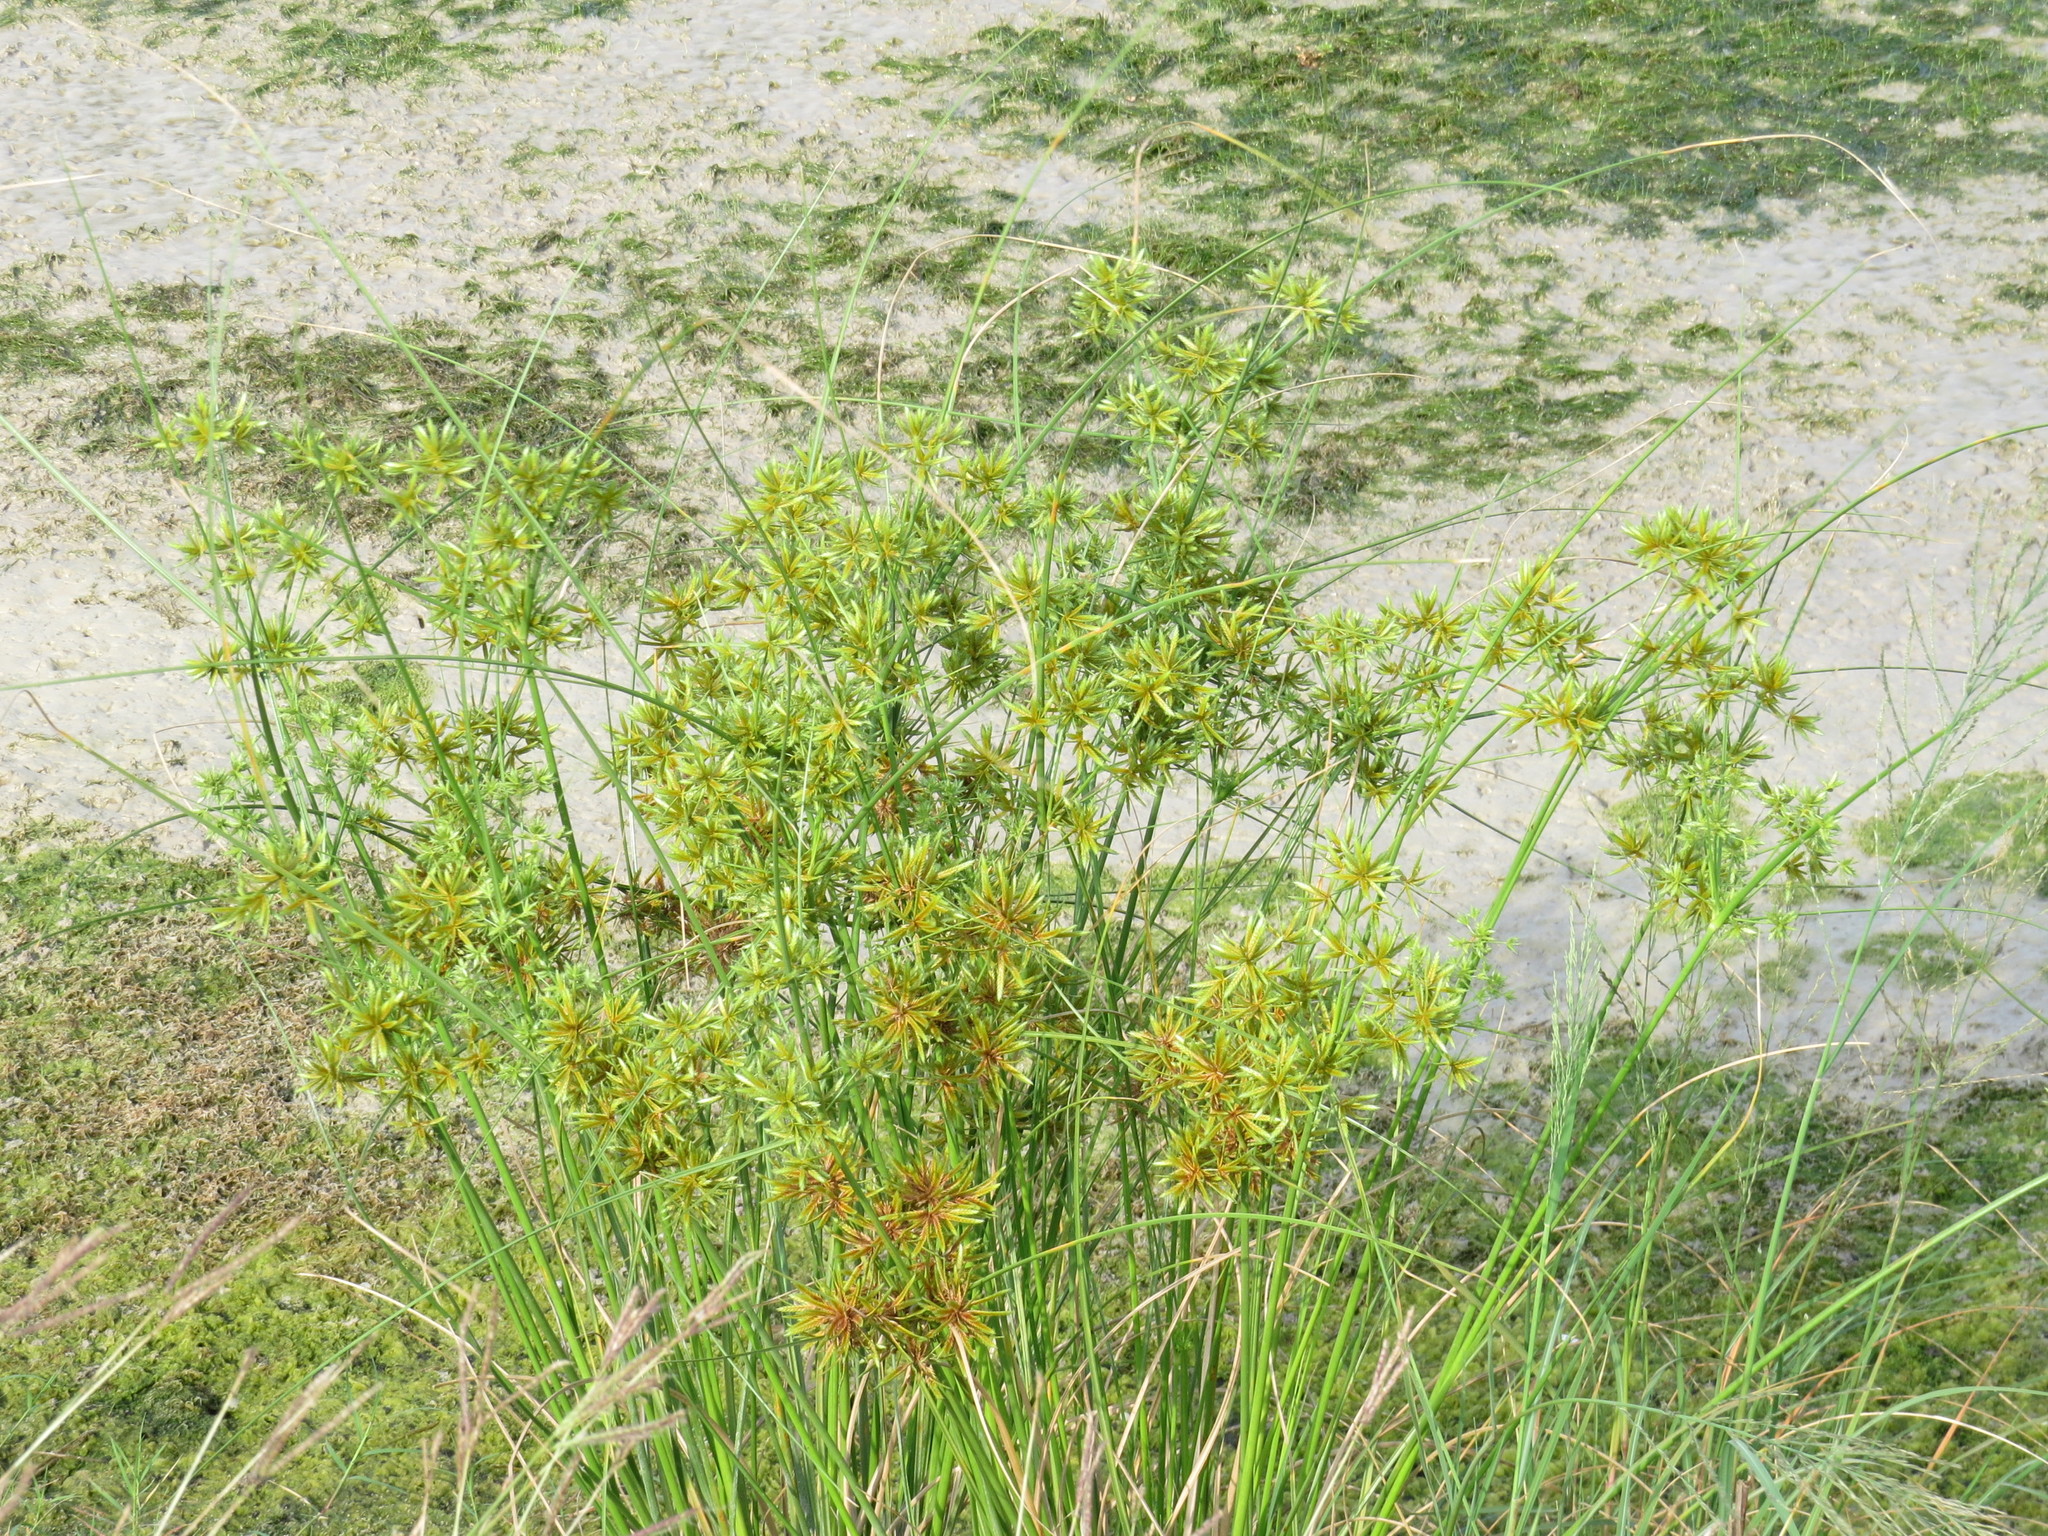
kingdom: Plantae
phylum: Tracheophyta
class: Liliopsida
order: Poales
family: Cyperaceae
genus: Cyperus
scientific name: Cyperus oxylepis
